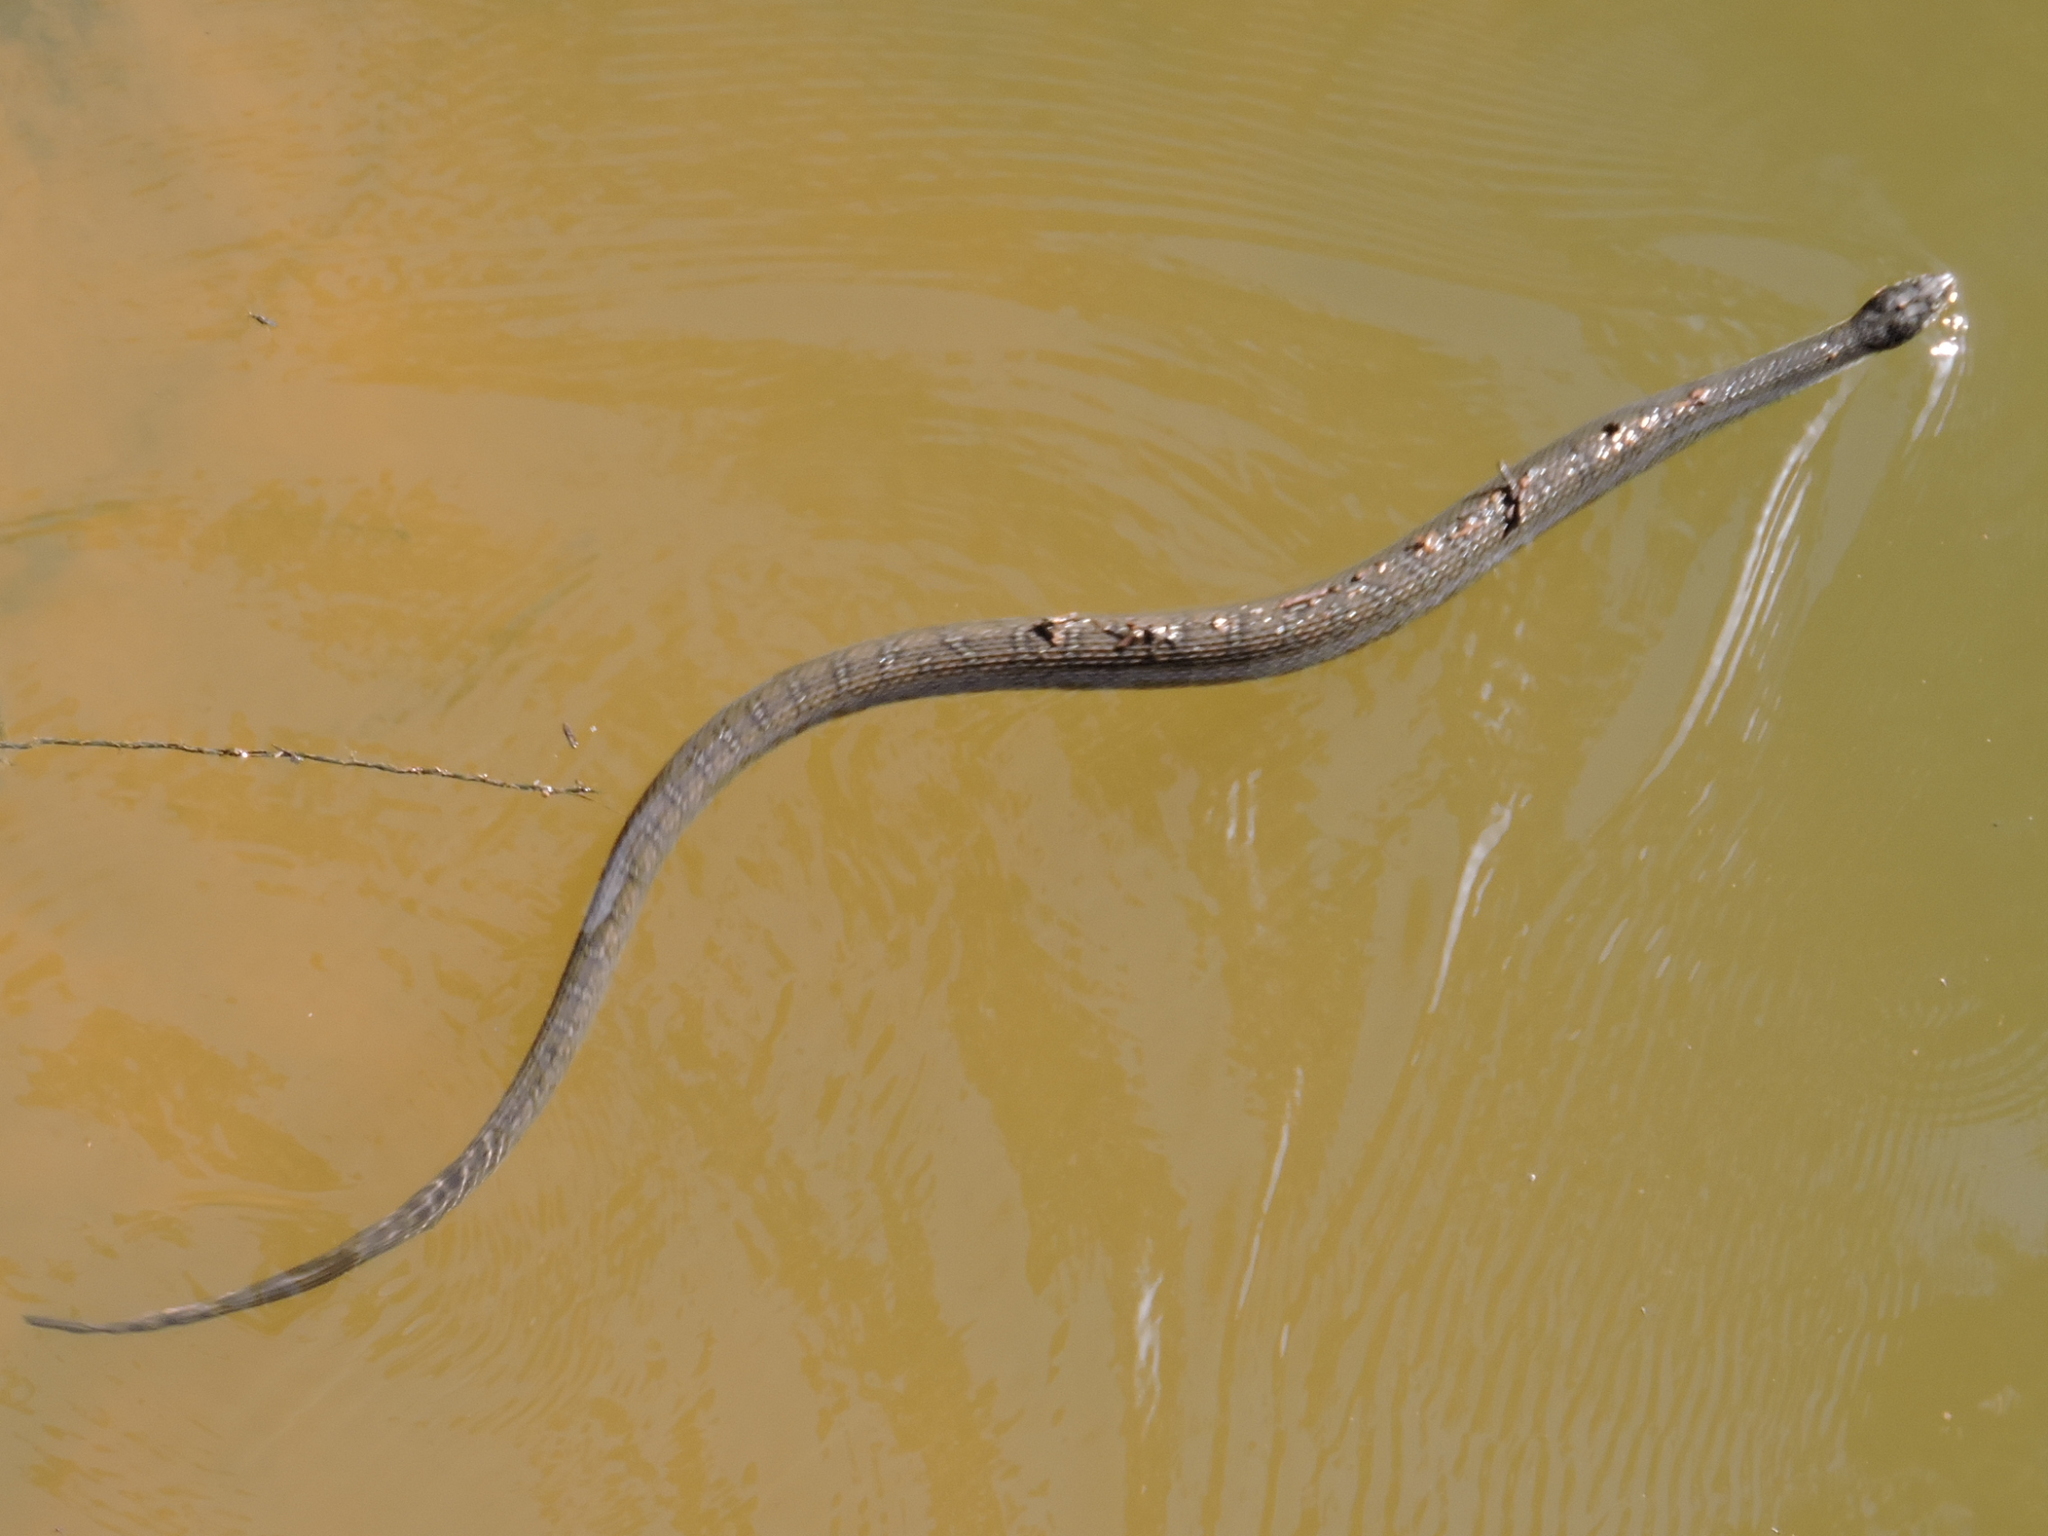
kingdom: Animalia
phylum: Chordata
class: Squamata
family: Colubridae
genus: Nerodia
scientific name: Nerodia erythrogaster
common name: Plainbelly water snake
